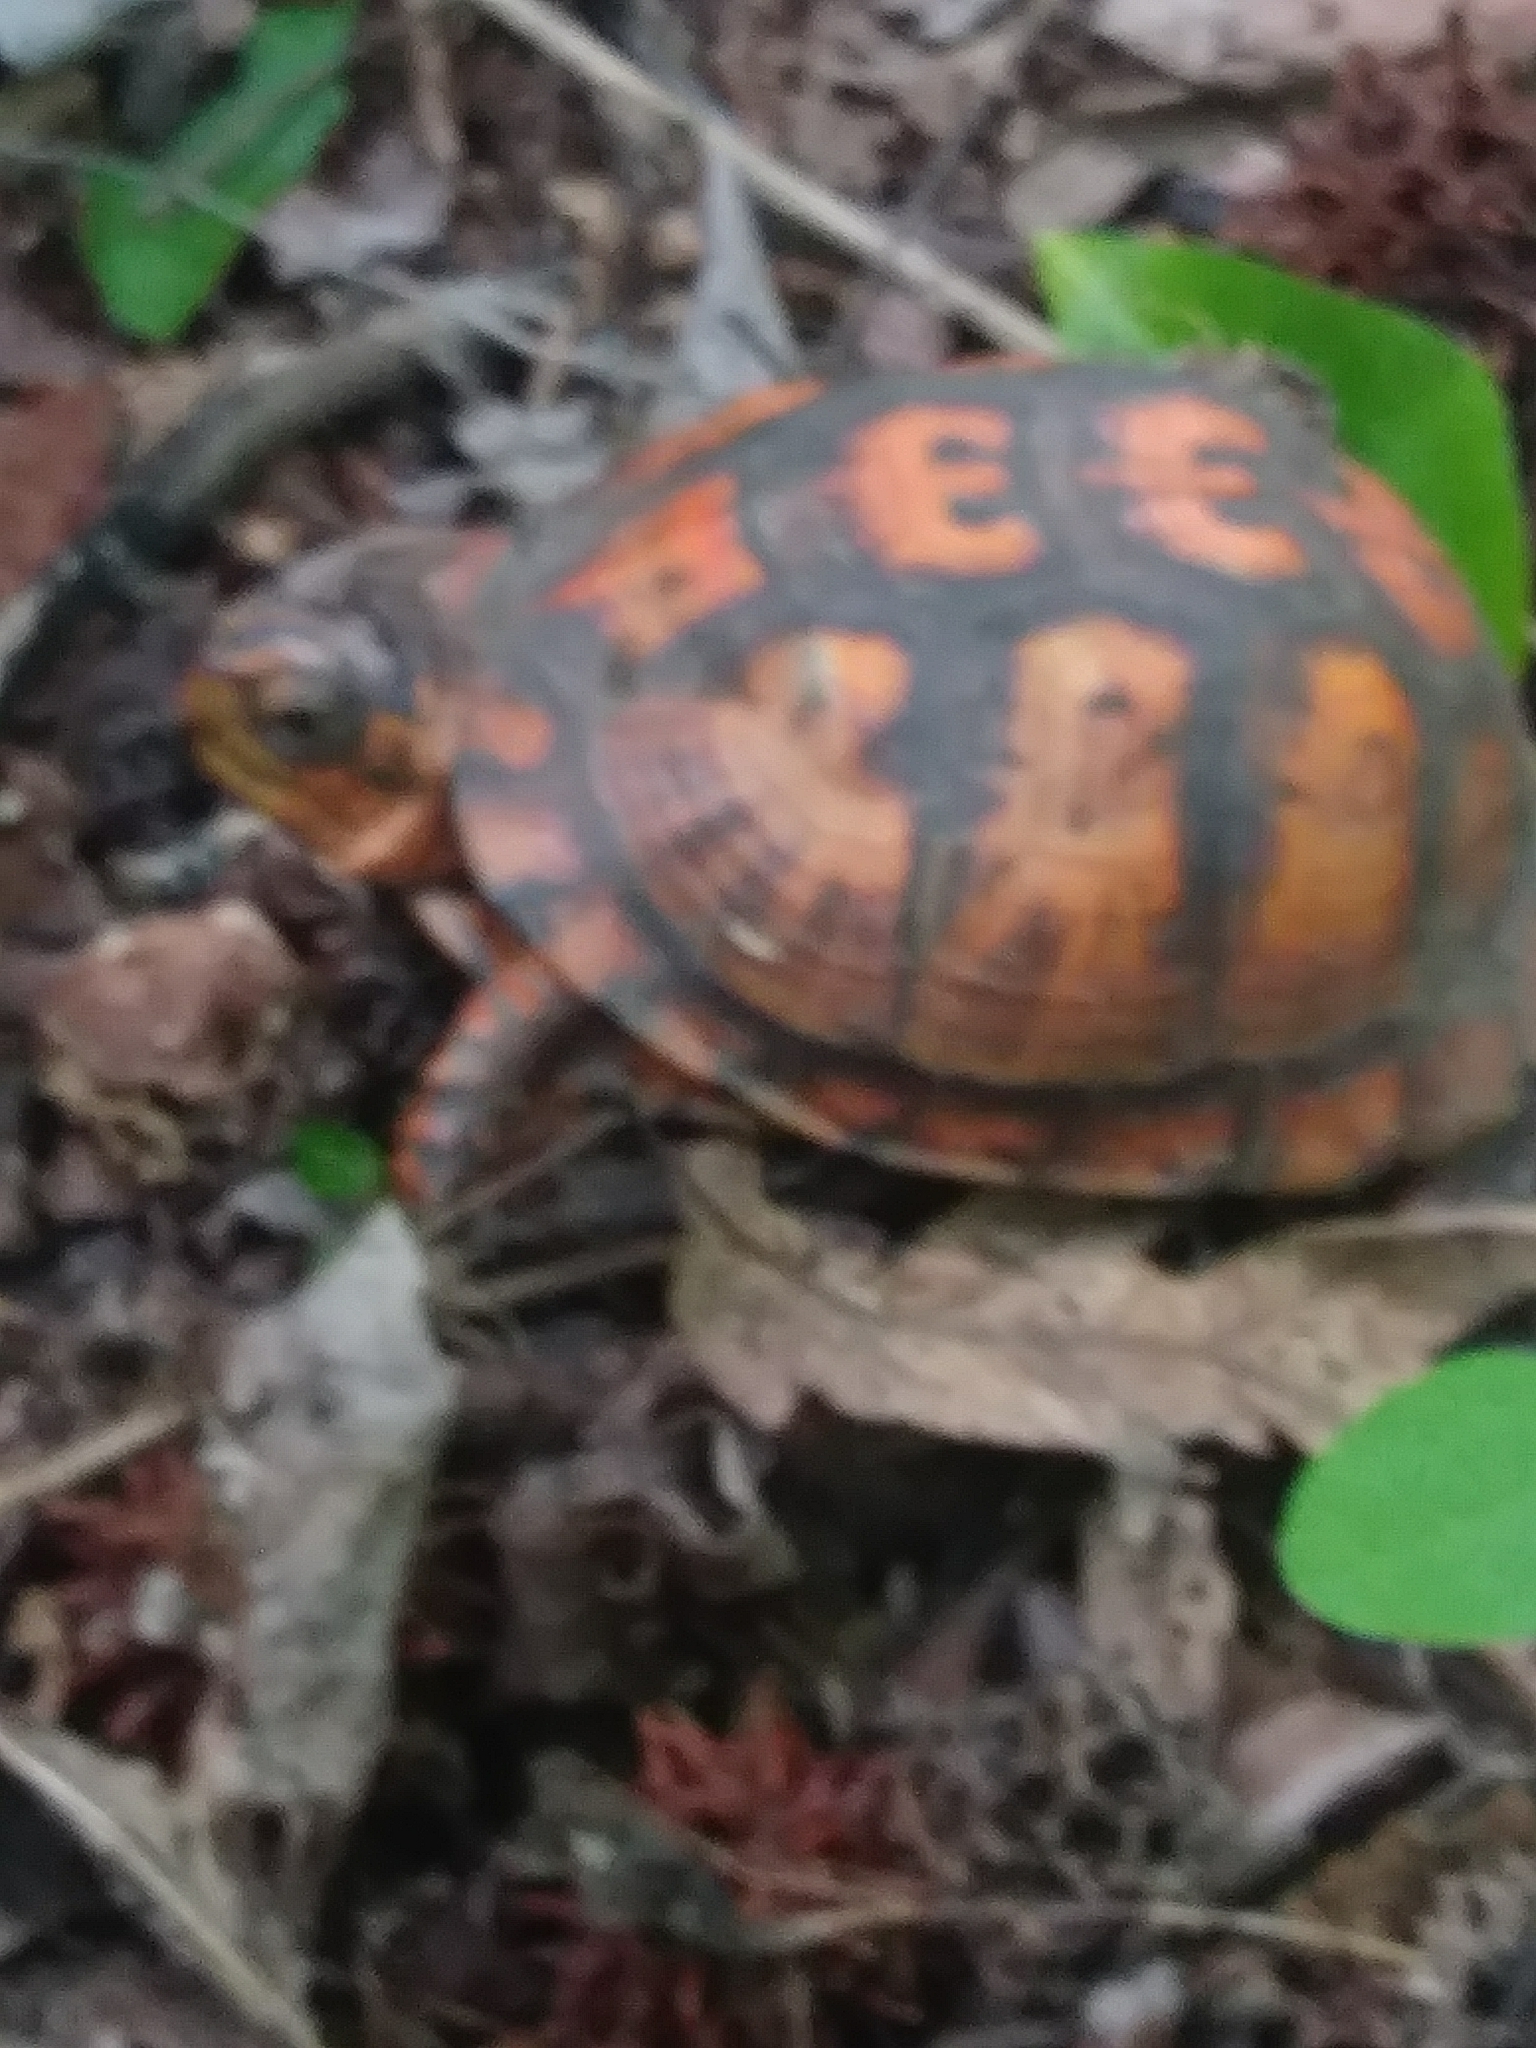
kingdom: Animalia
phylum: Chordata
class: Testudines
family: Emydidae
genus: Terrapene
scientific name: Terrapene carolina
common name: Common box turtle
